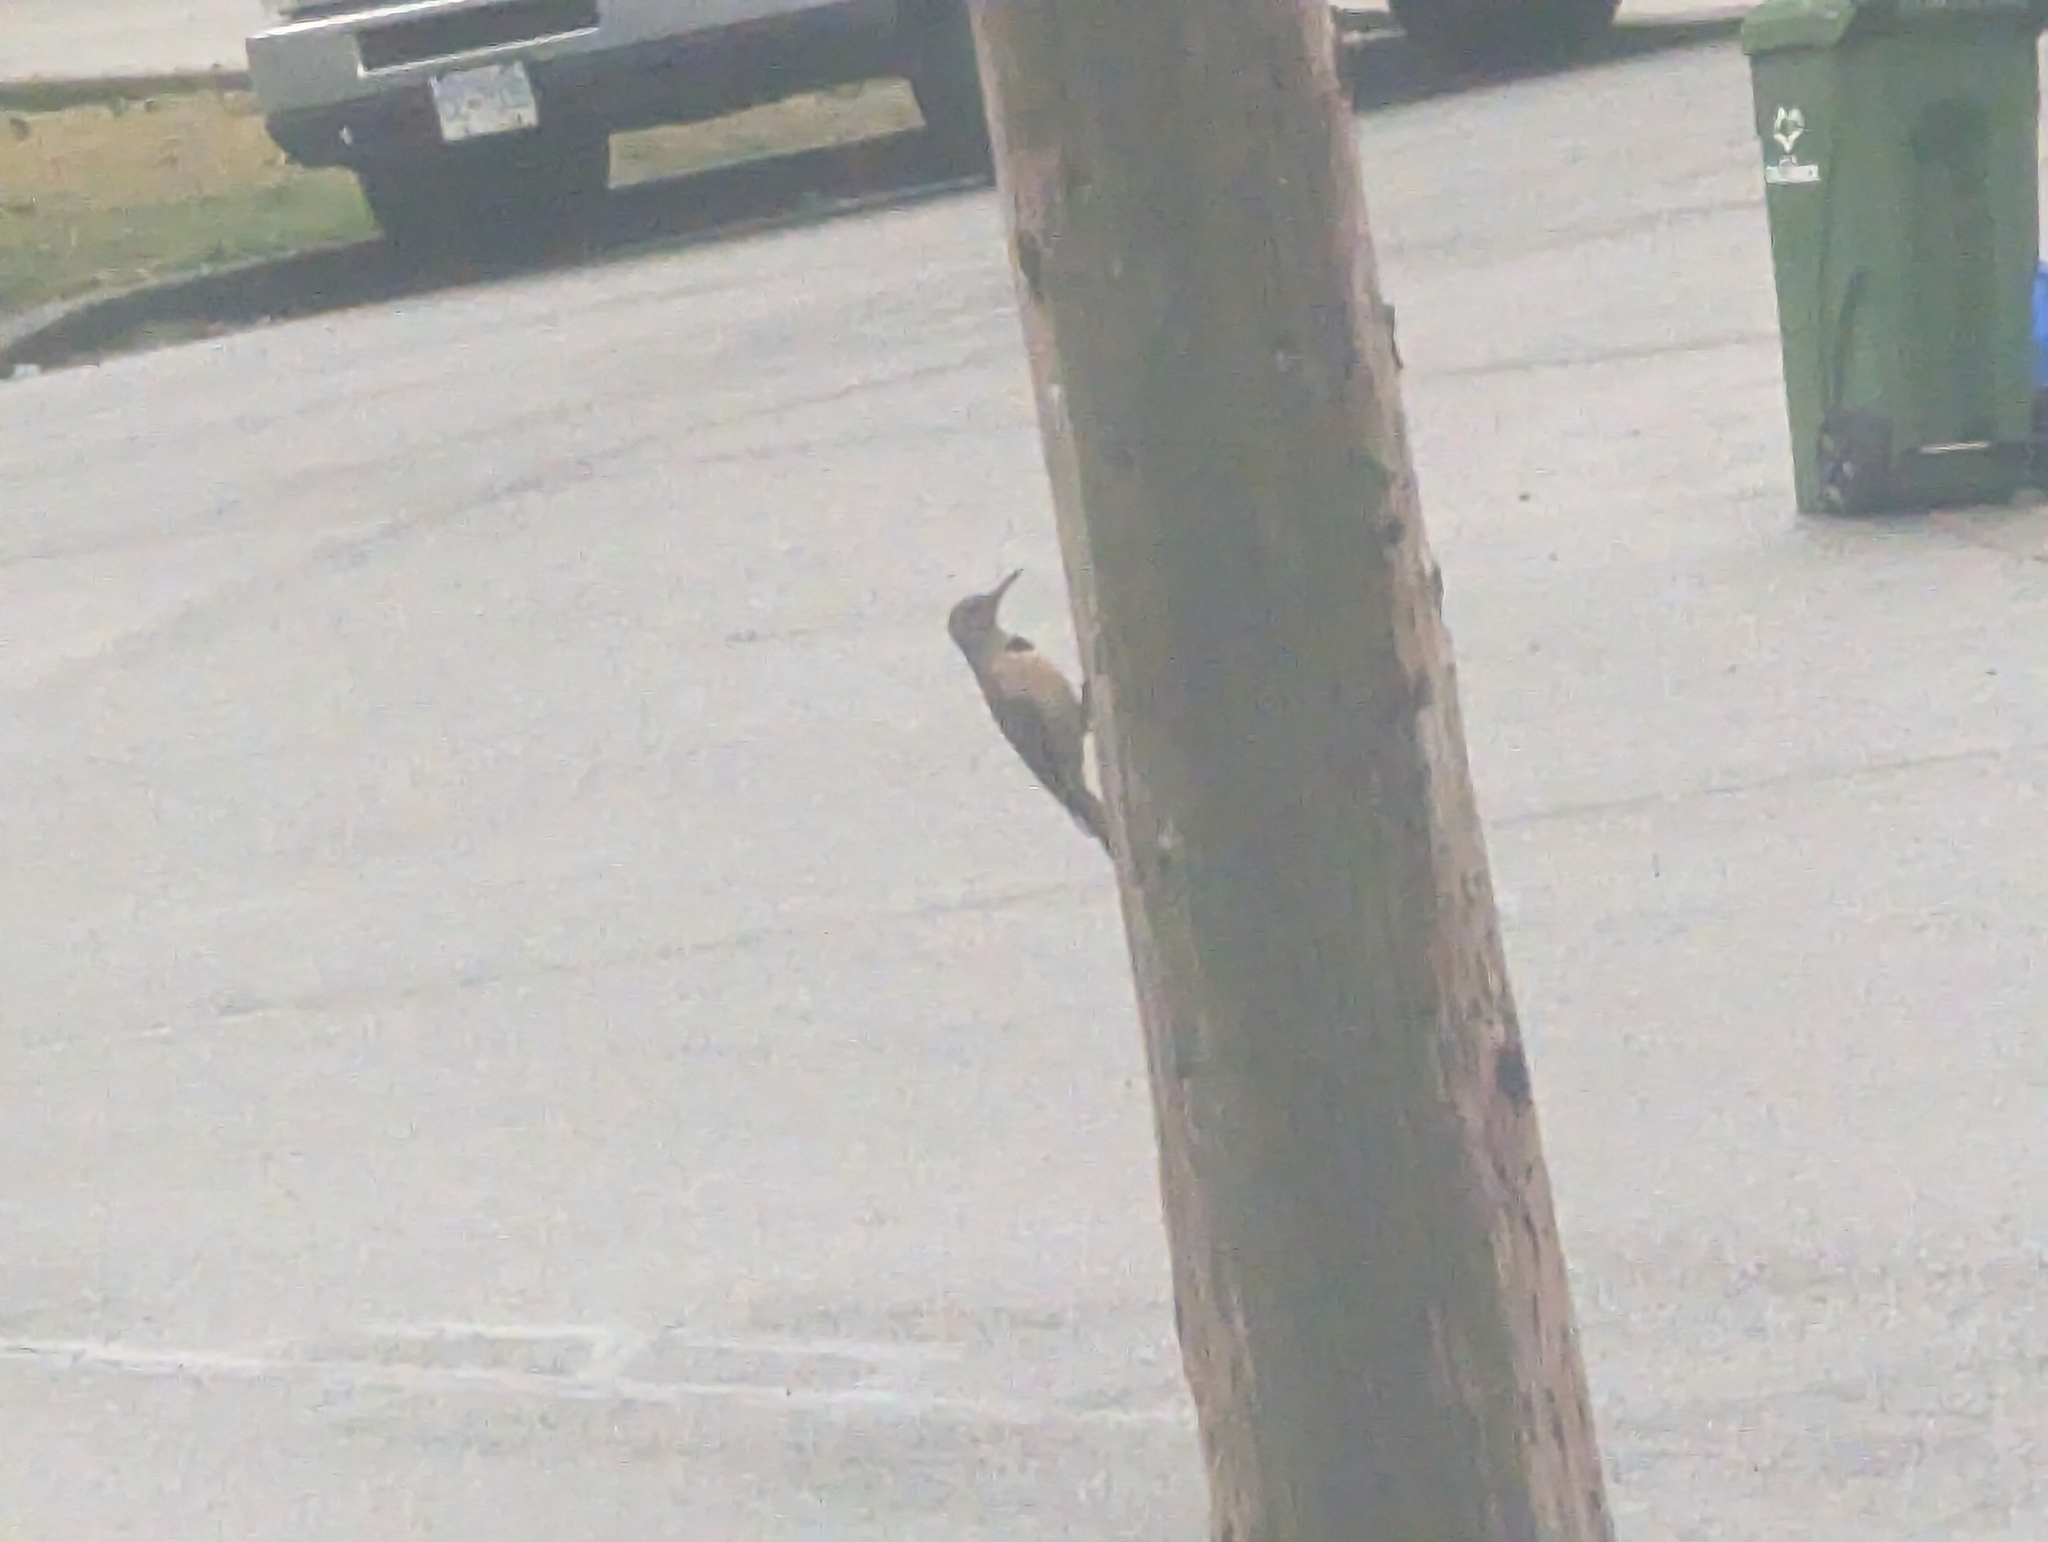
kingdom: Animalia
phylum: Chordata
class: Aves
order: Piciformes
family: Picidae
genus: Colaptes
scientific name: Colaptes auratus
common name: Northern flicker
